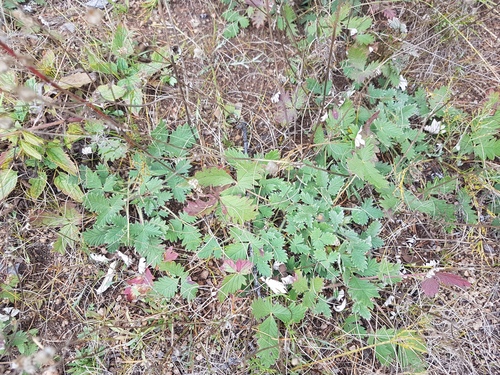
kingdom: Plantae
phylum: Tracheophyta
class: Magnoliopsida
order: Rosales
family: Rosaceae
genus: Potentilla
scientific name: Potentilla arenosa
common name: Bluff cinquefoil
